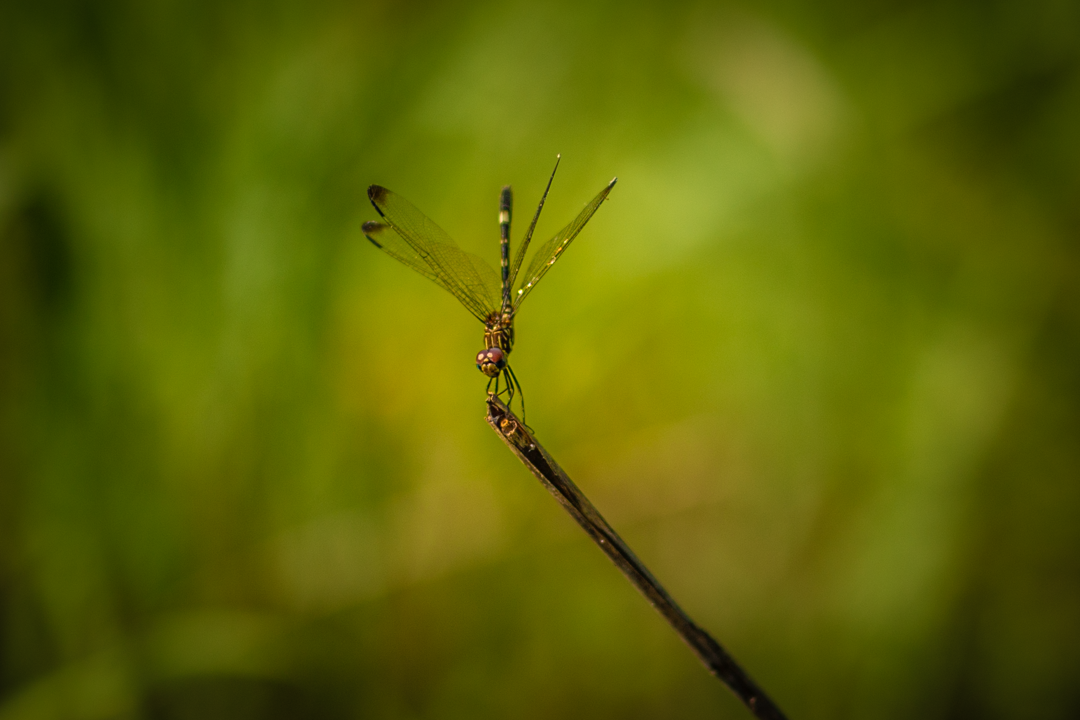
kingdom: Animalia
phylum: Arthropoda
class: Insecta
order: Odonata
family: Libellulidae
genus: Dythemis
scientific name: Dythemis velox
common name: Swift setwing
